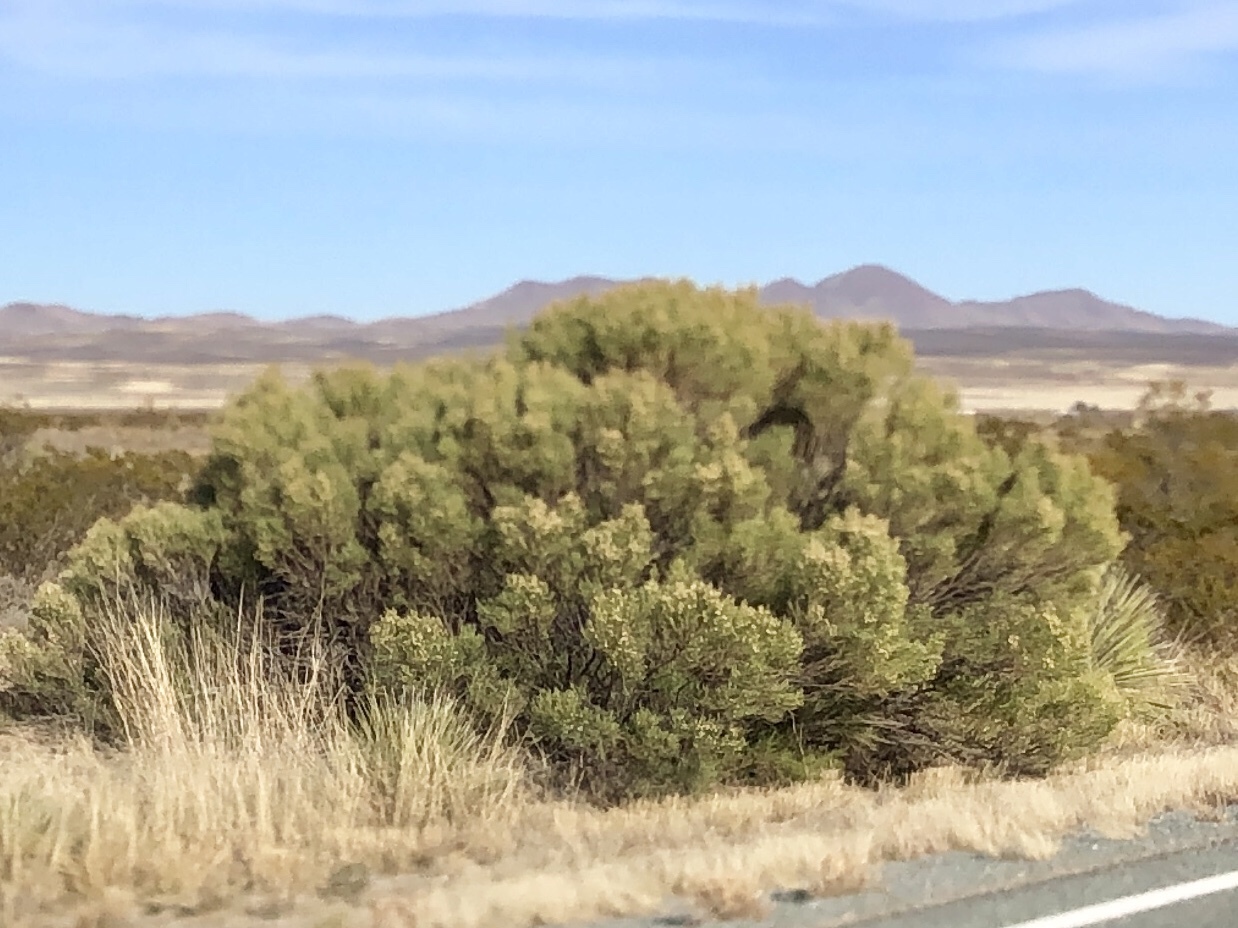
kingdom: Plantae
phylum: Tracheophyta
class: Magnoliopsida
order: Asterales
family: Asteraceae
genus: Baccharis
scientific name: Baccharis sarothroides
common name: Desert-broom
